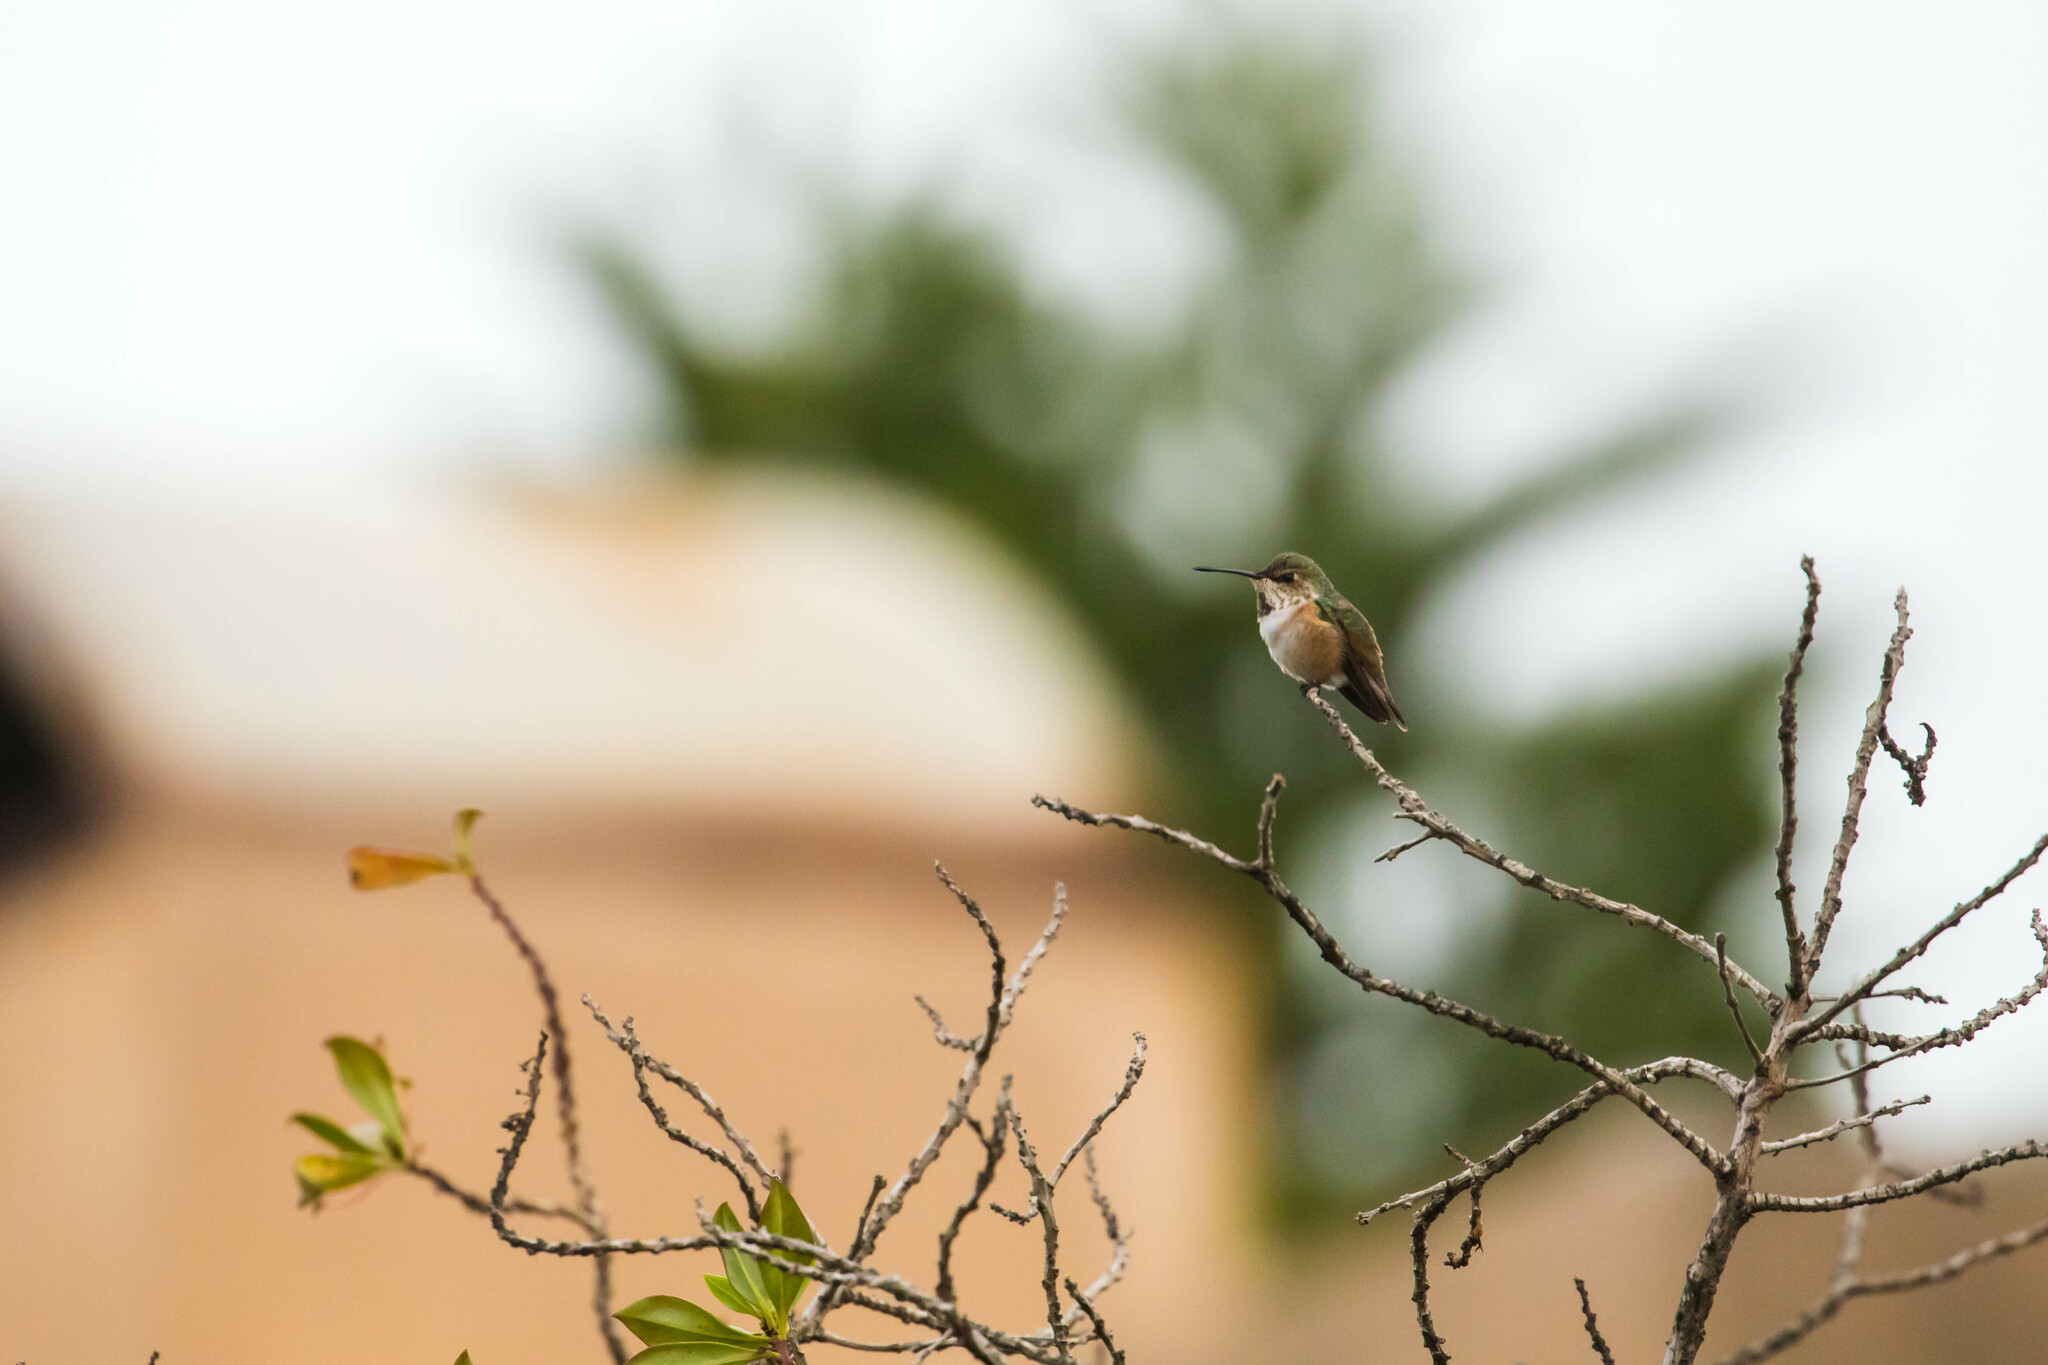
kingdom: Animalia
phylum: Chordata
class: Aves
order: Apodiformes
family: Trochilidae
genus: Selasphorus
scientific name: Selasphorus sasin
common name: Allen's hummingbird
